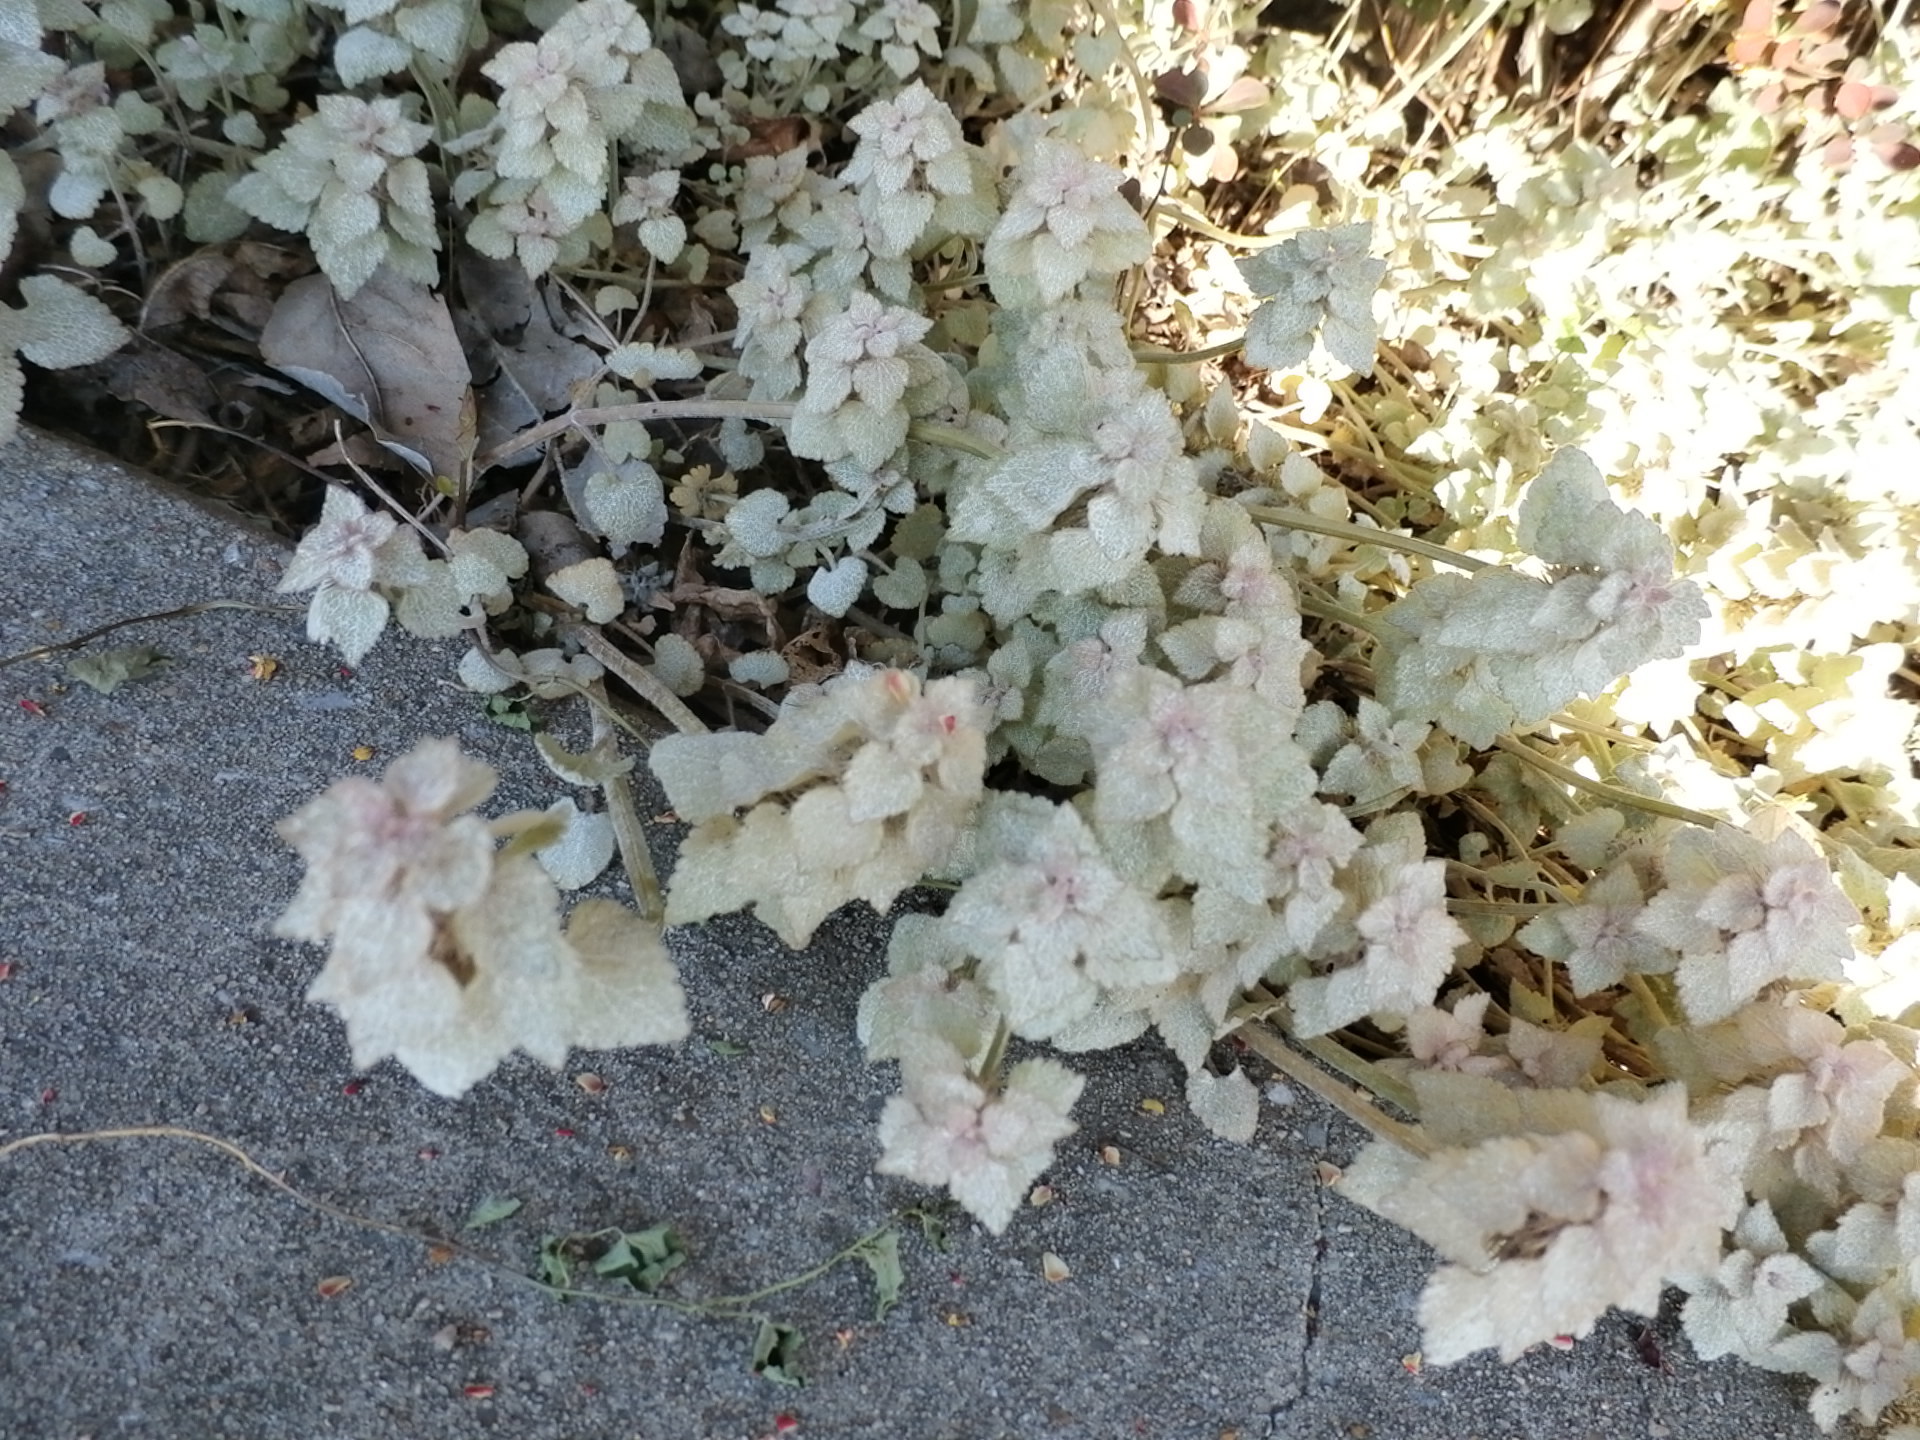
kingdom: Plantae
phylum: Tracheophyta
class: Magnoliopsida
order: Lamiales
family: Lamiaceae
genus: Lamium
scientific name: Lamium purpureum
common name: Red dead-nettle
